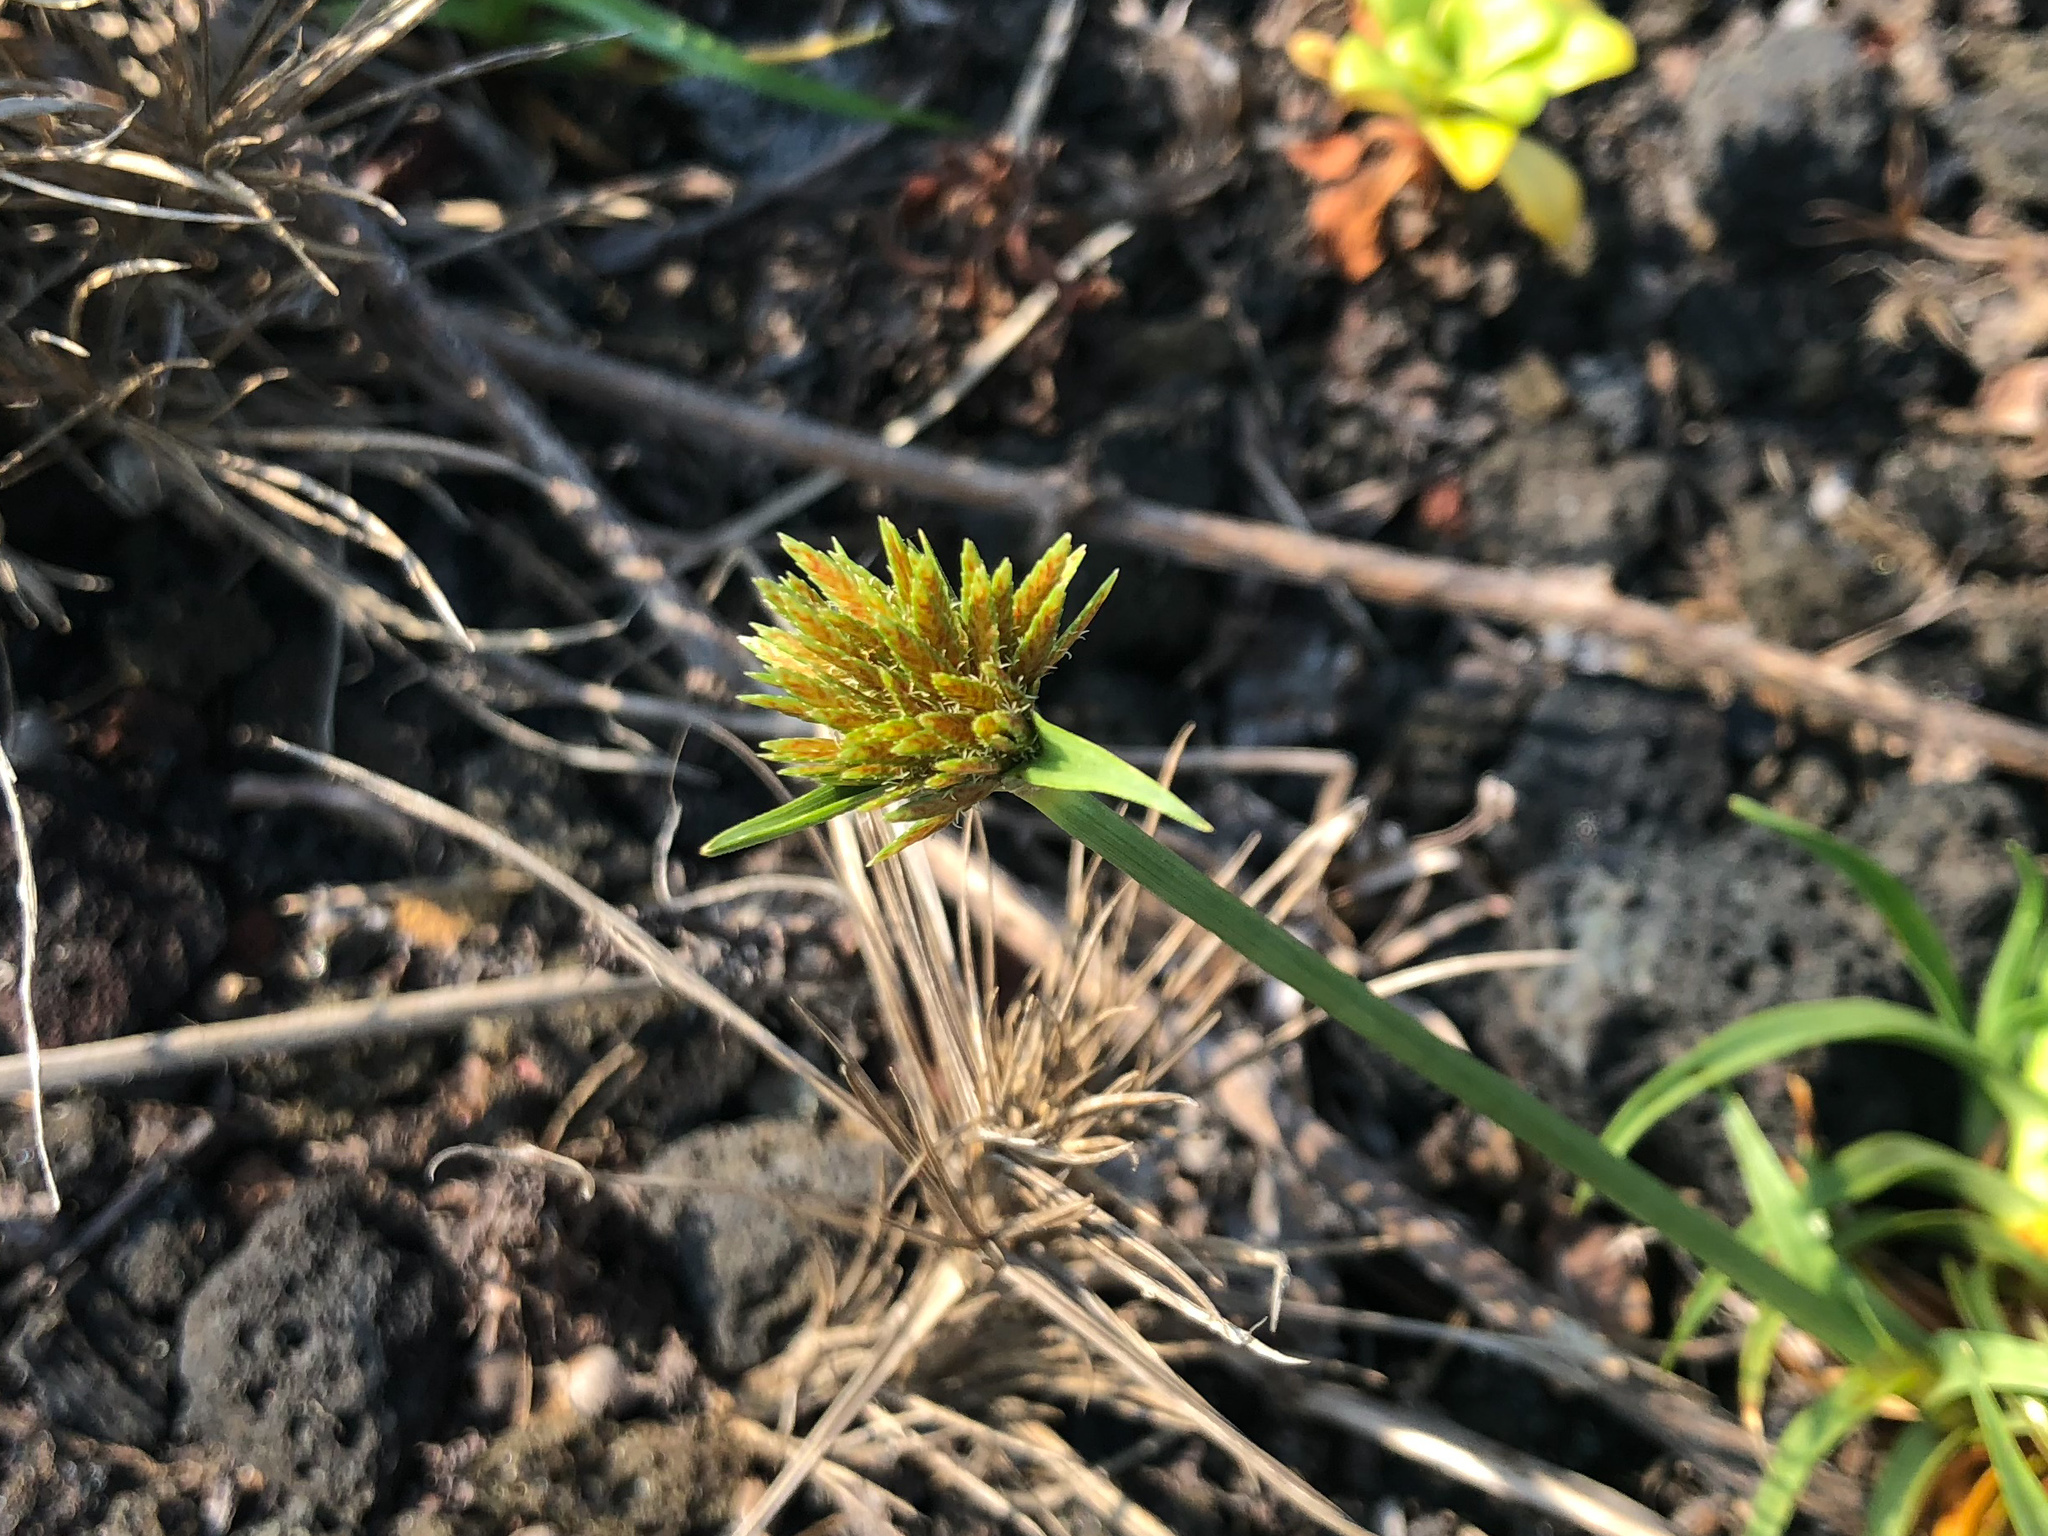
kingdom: Plantae
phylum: Tracheophyta
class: Liliopsida
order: Poales
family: Cyperaceae
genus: Cyperus
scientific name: Cyperus polystachyos
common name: Bunchy flat sedge
